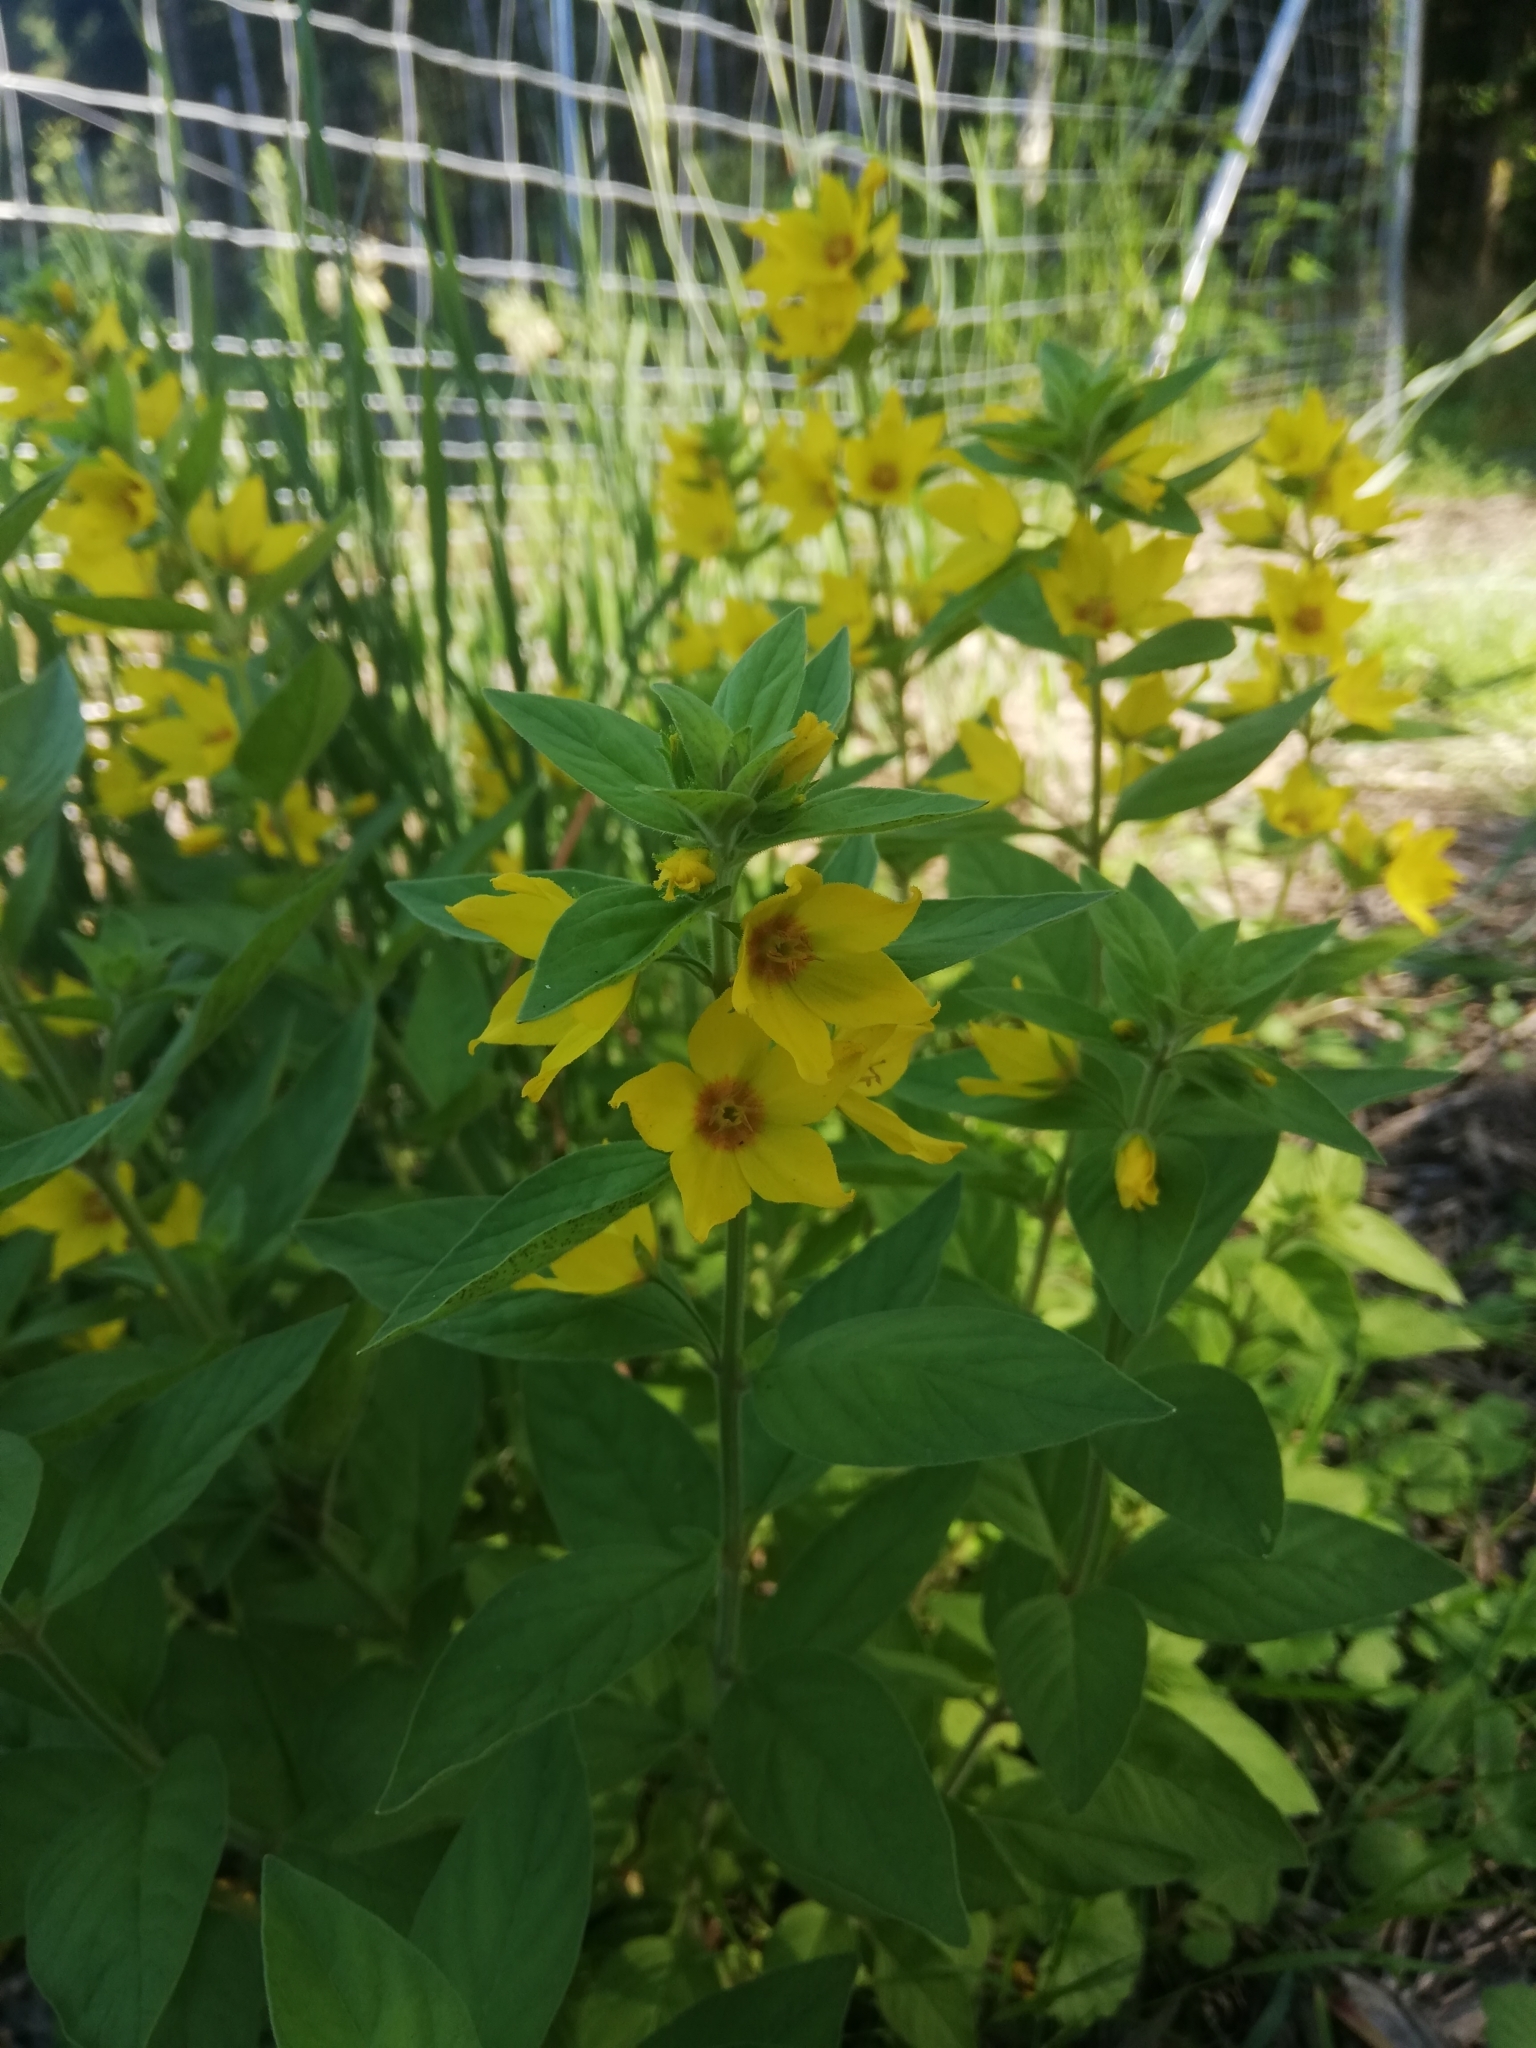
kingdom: Plantae
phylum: Tracheophyta
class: Magnoliopsida
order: Ericales
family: Primulaceae
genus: Lysimachia
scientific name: Lysimachia punctata
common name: Dotted loosestrife
